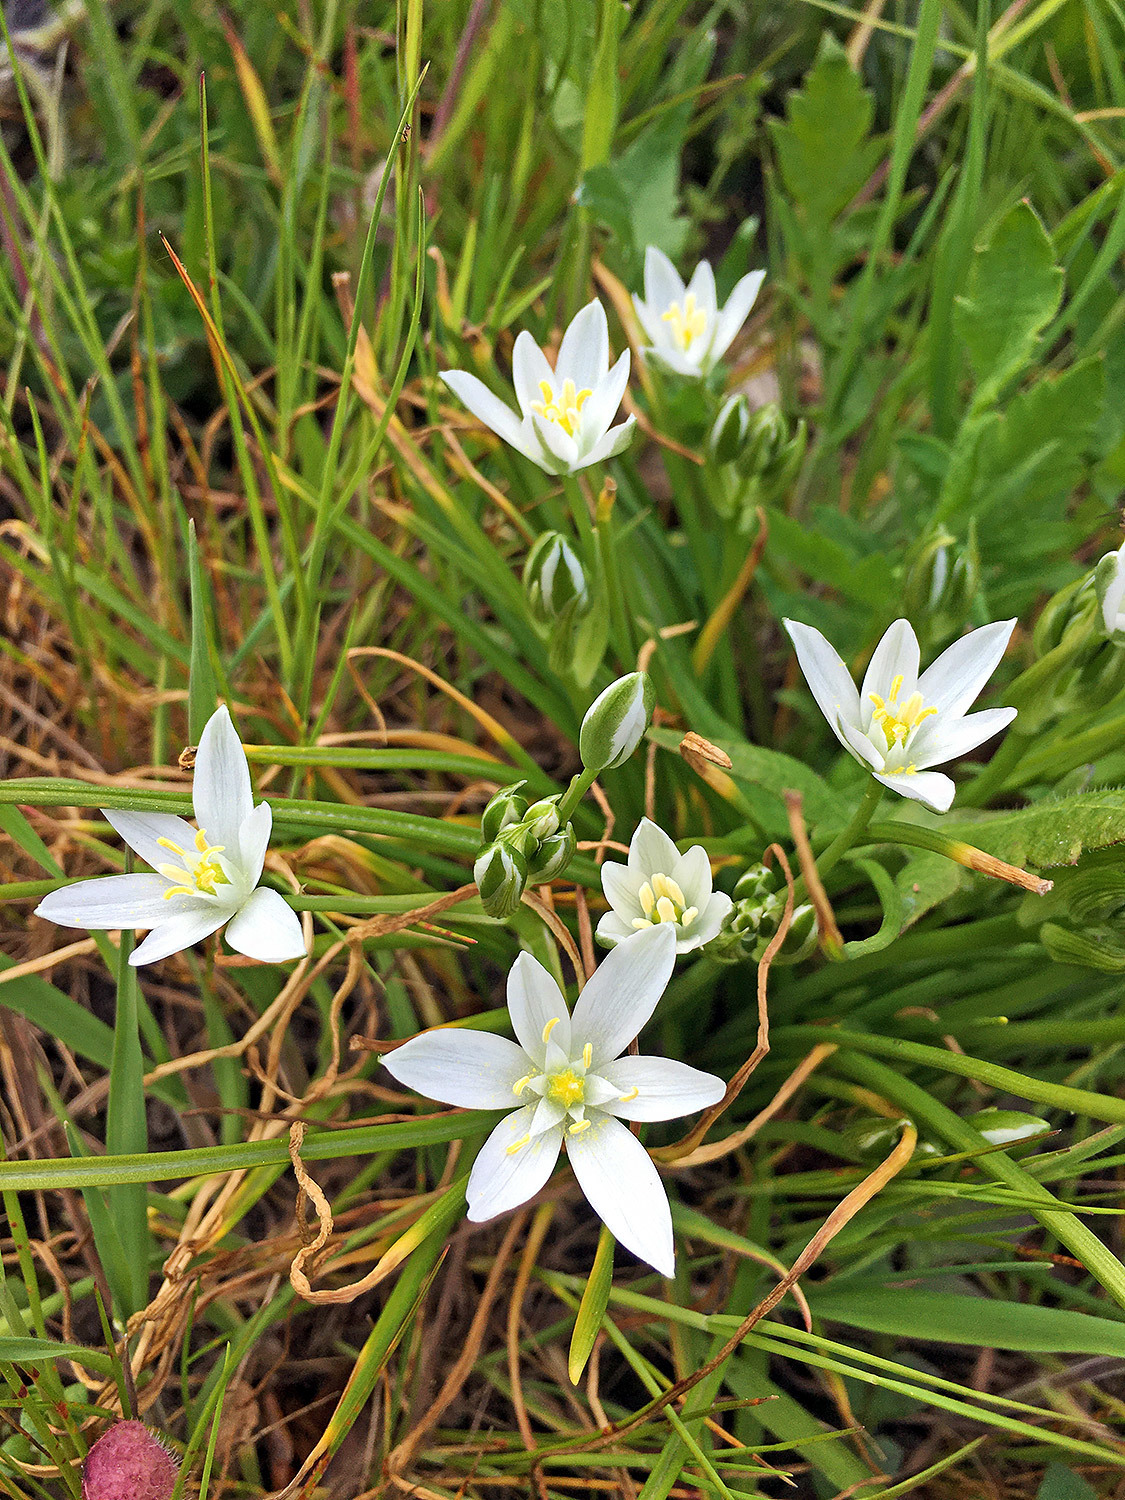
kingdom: Plantae
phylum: Tracheophyta
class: Liliopsida
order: Asparagales
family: Asparagaceae
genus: Ornithogalum
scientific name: Ornithogalum umbellatum
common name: Garden star-of-bethlehem
